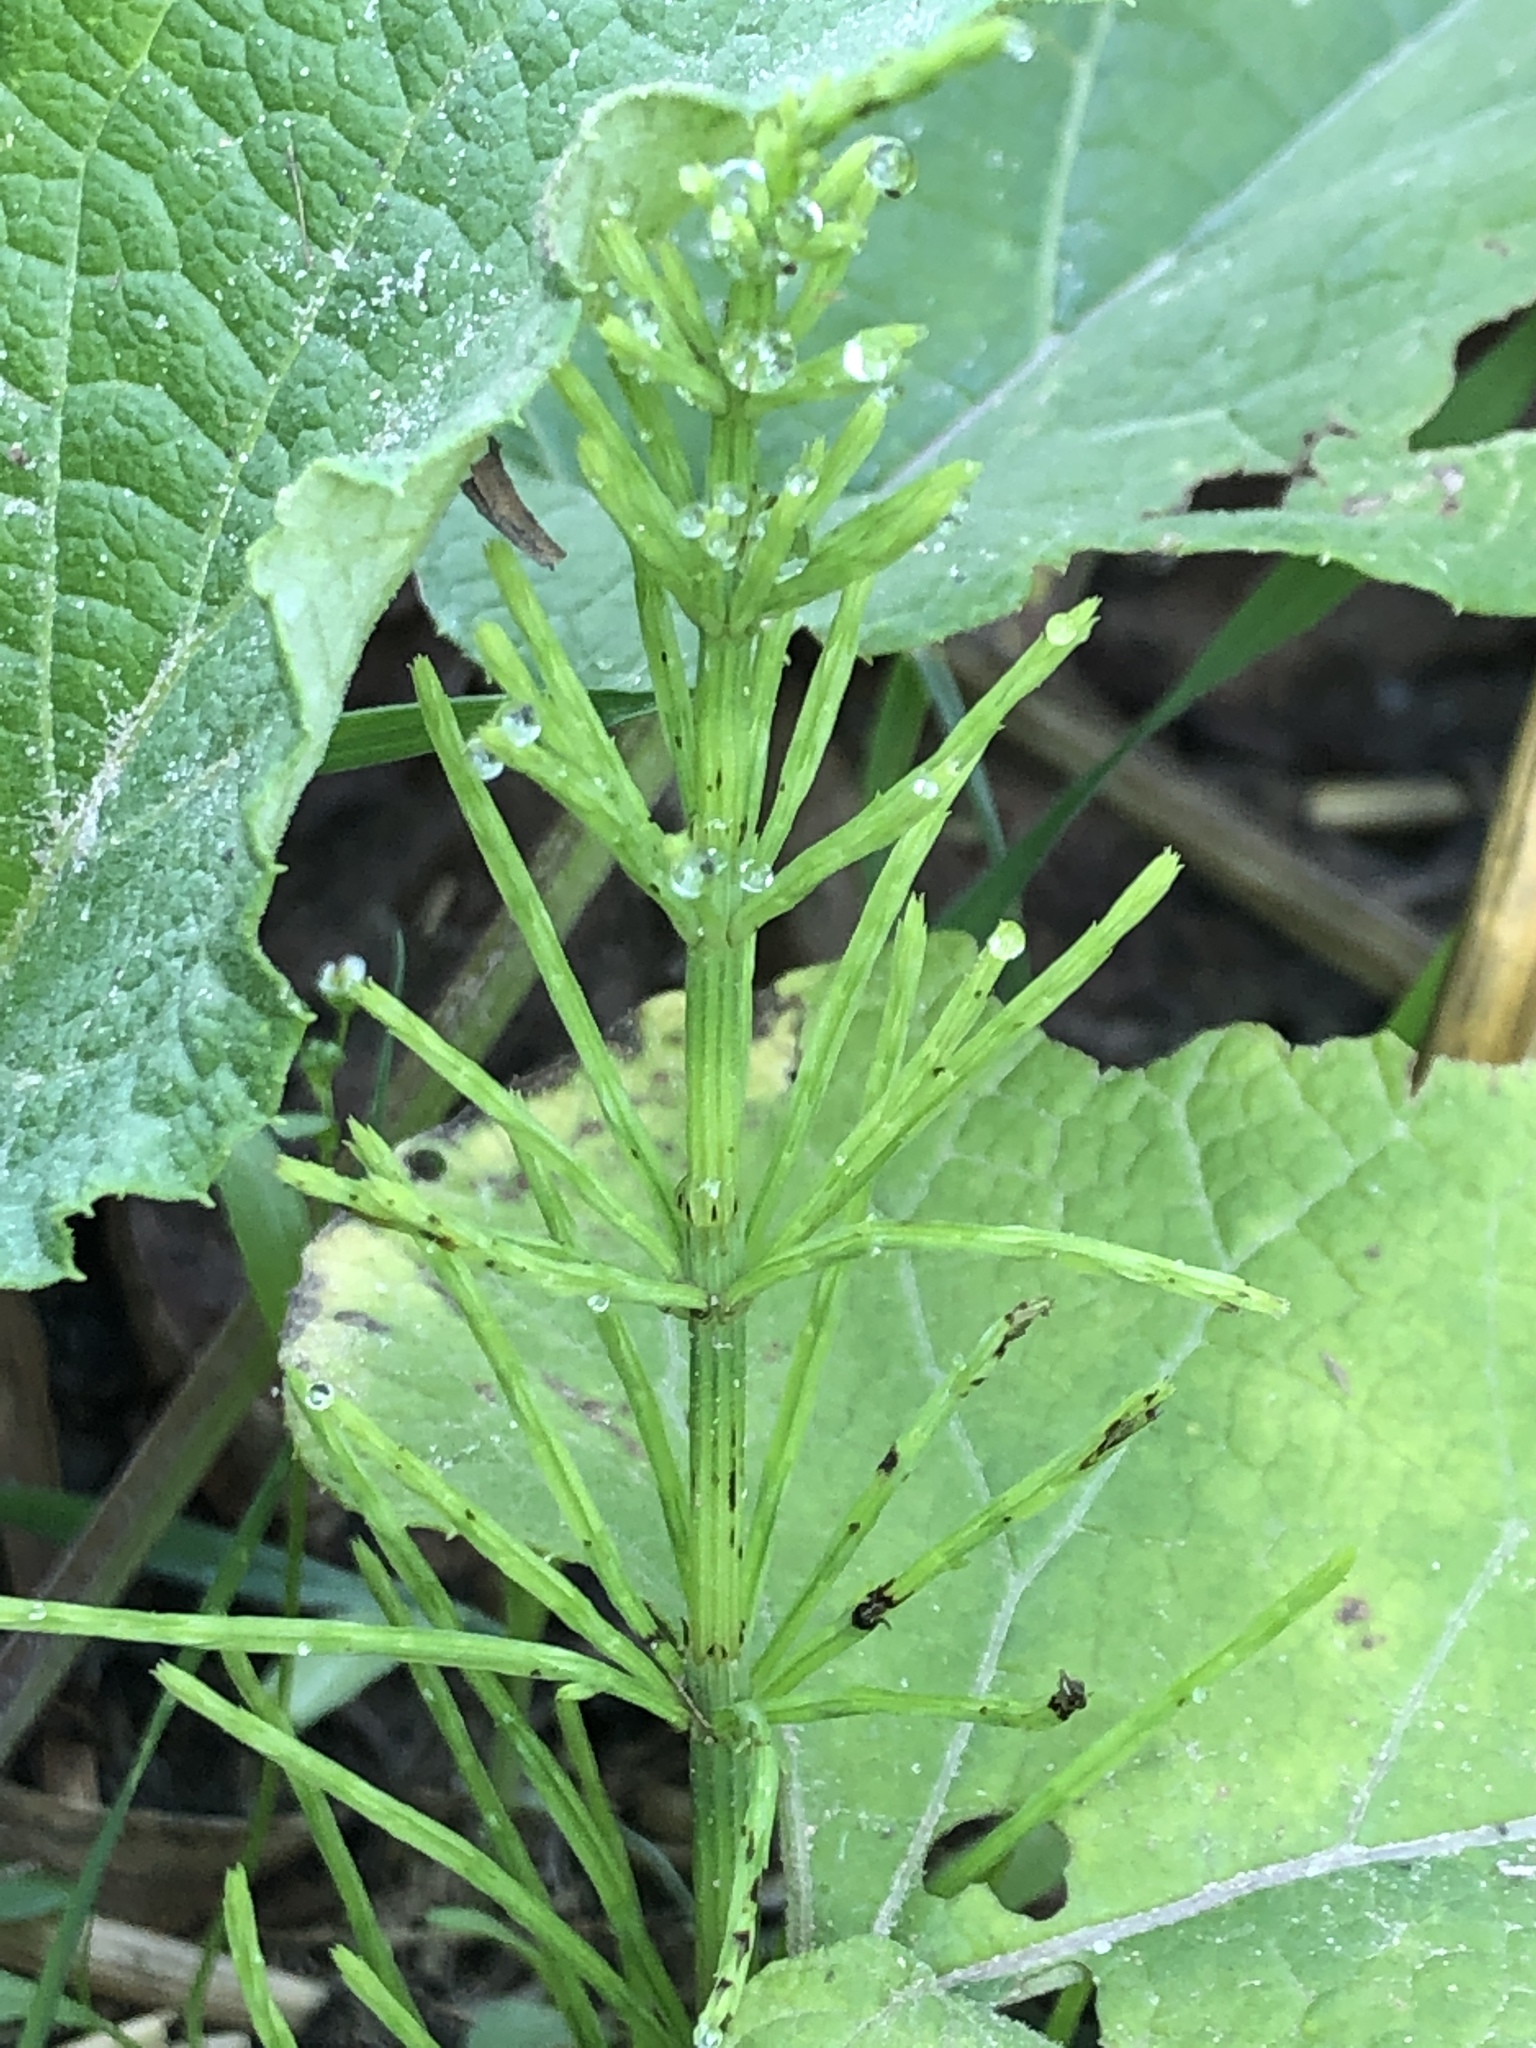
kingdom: Plantae
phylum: Tracheophyta
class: Polypodiopsida
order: Equisetales
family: Equisetaceae
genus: Equisetum
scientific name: Equisetum arvense
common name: Field horsetail
